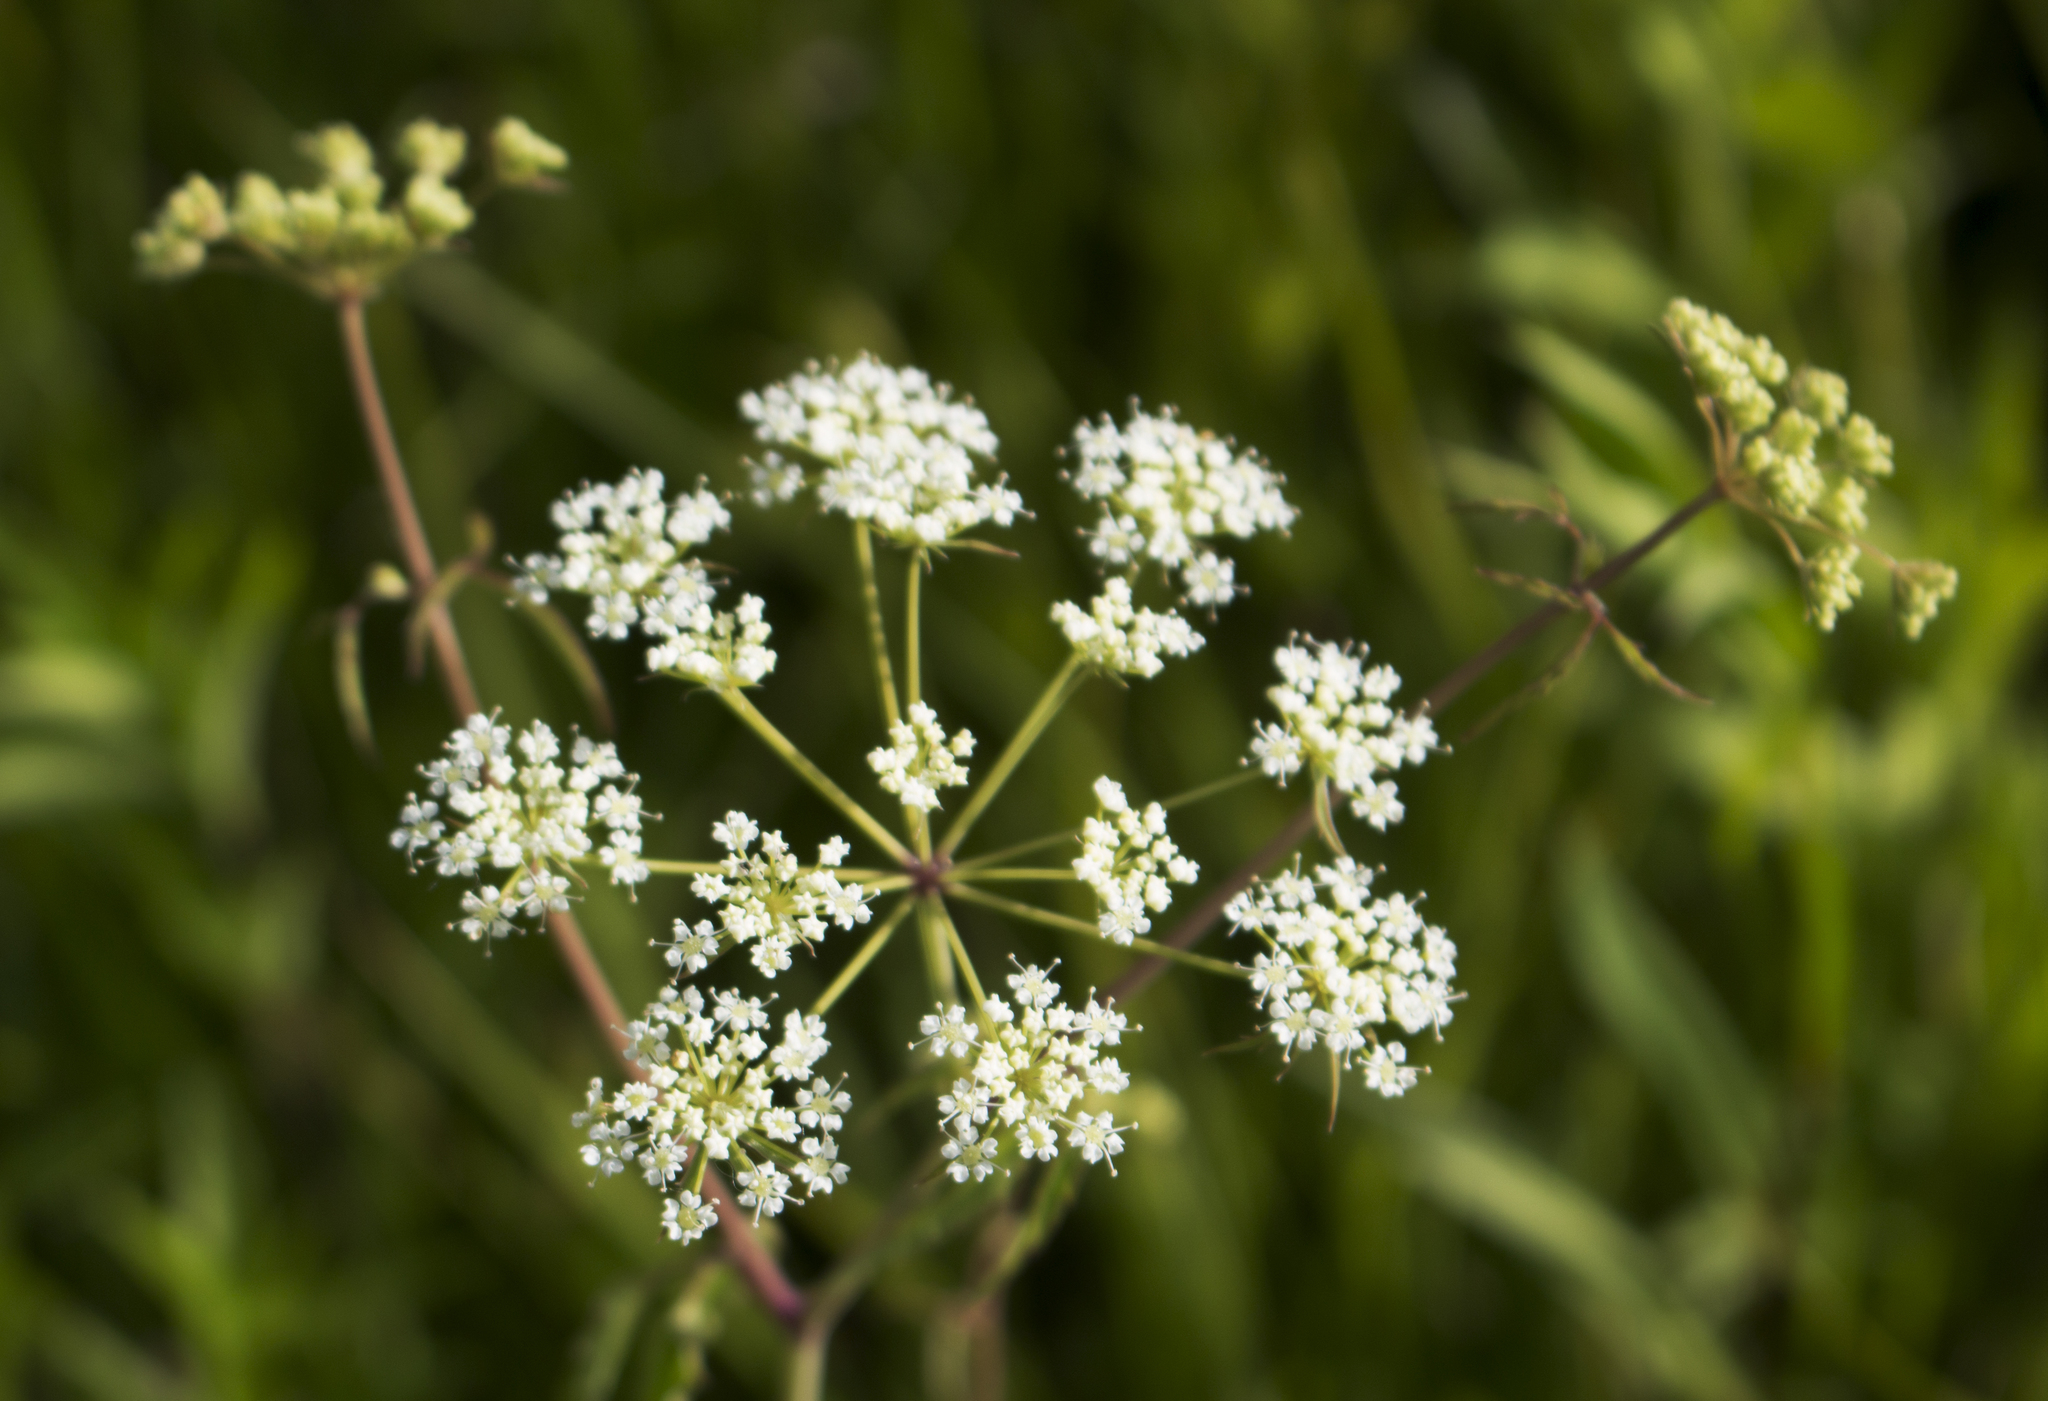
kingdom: Plantae
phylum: Tracheophyta
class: Magnoliopsida
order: Apiales
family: Apiaceae
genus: Cicuta
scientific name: Cicuta maculata
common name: Spotted cowbane
